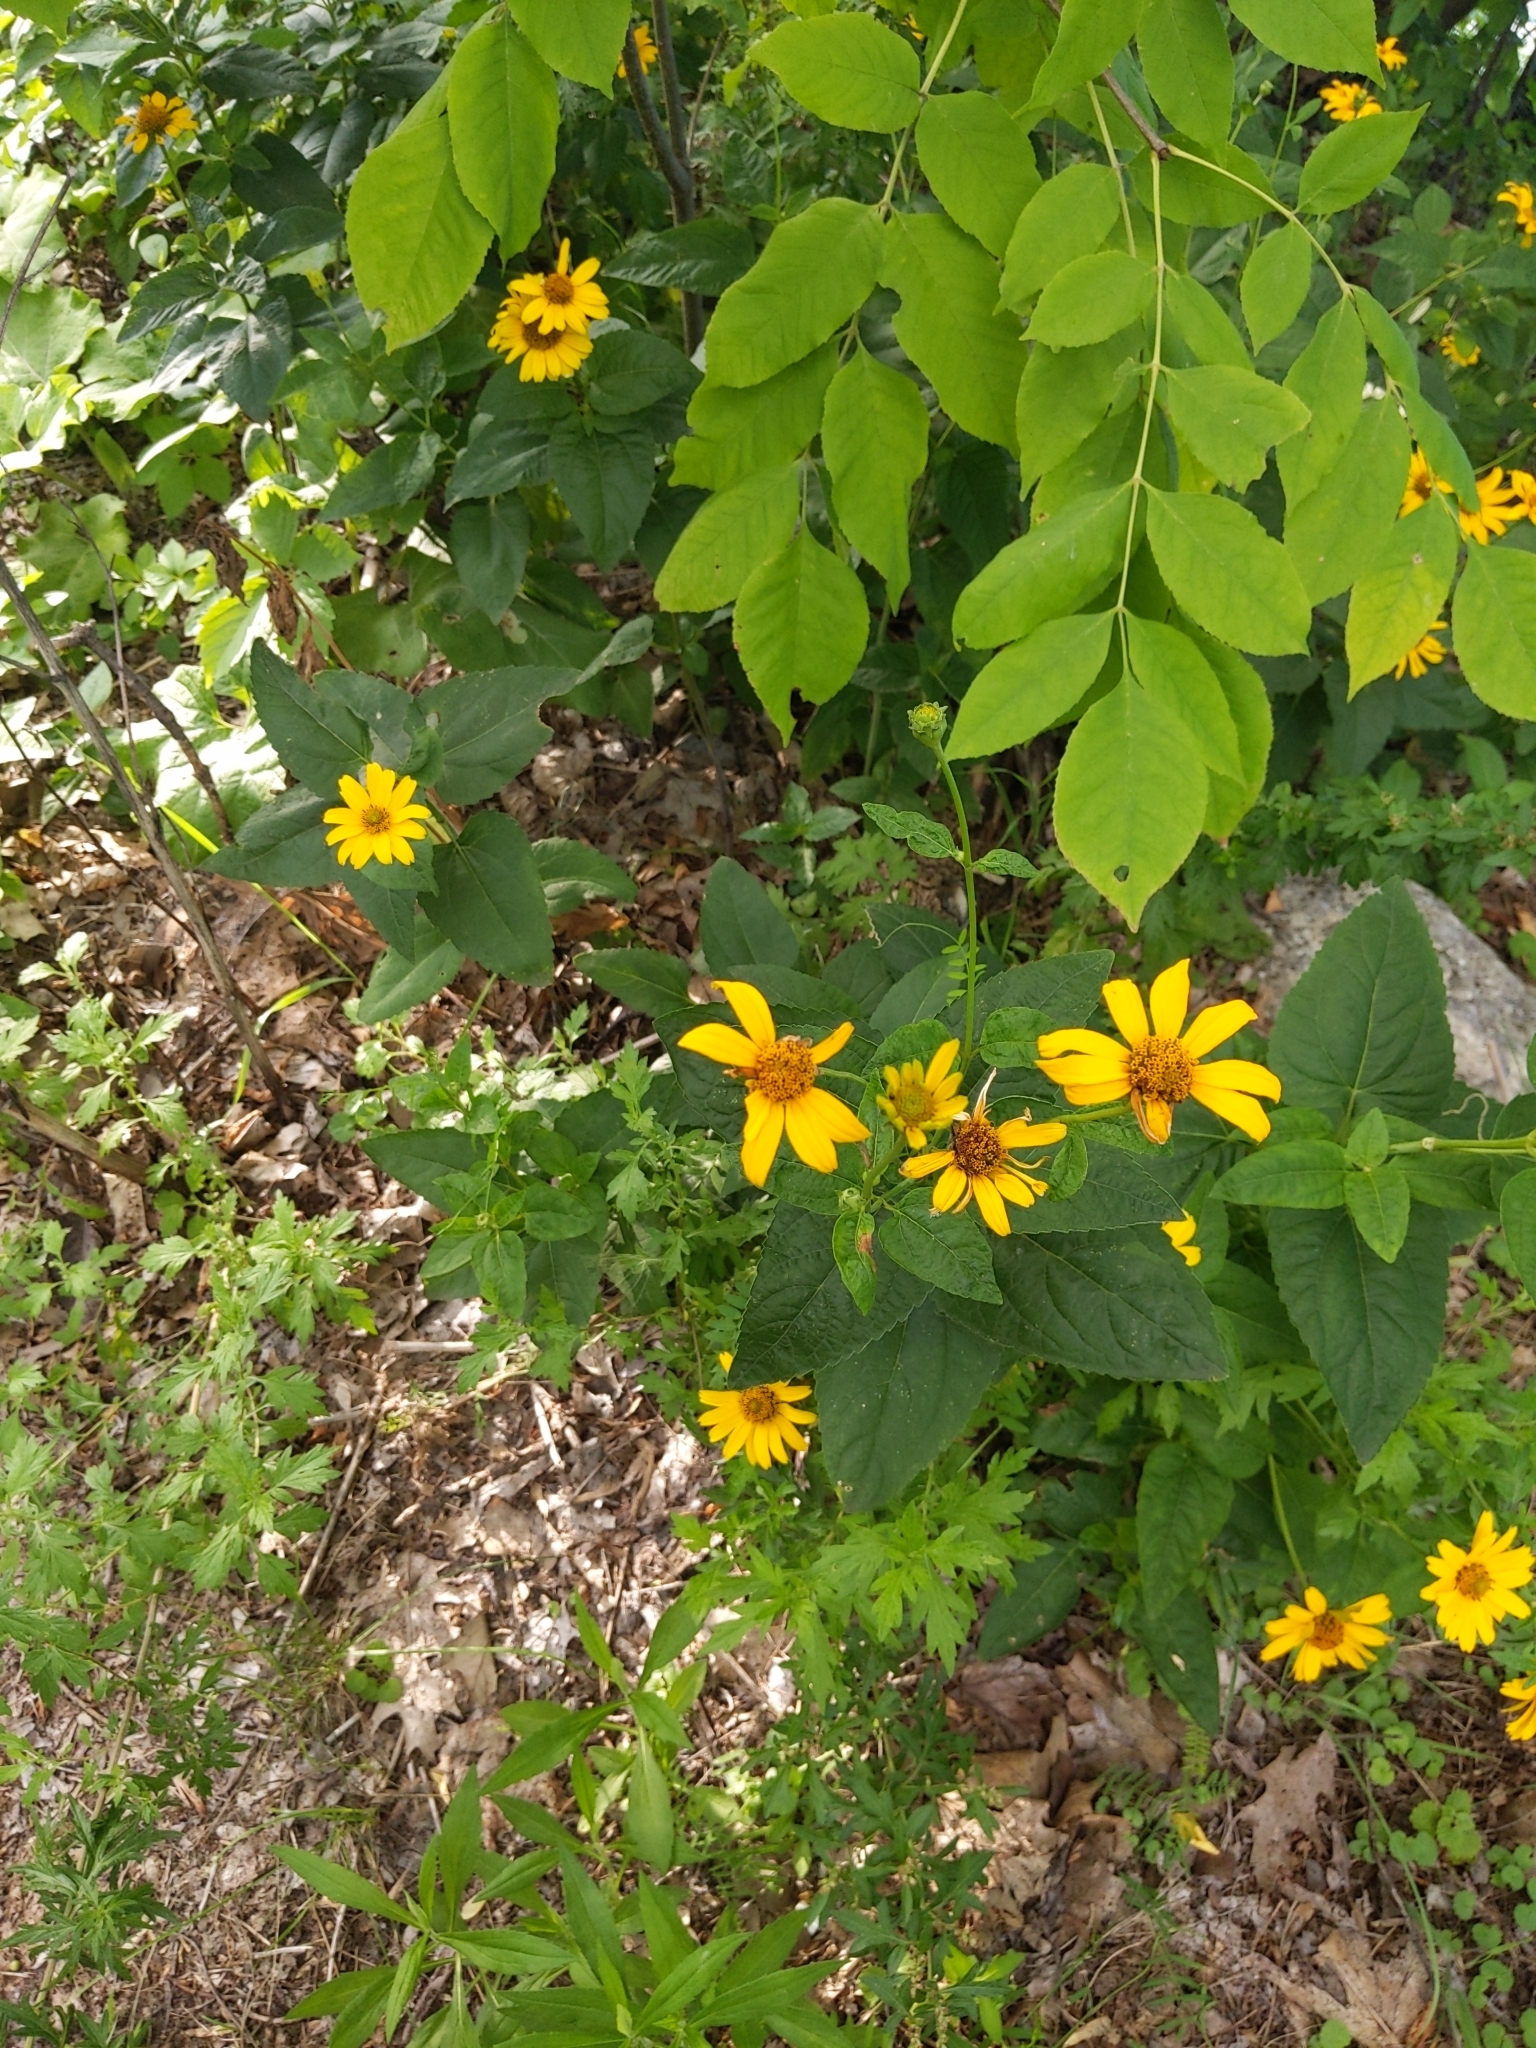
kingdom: Plantae
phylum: Tracheophyta
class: Magnoliopsida
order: Asterales
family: Asteraceae
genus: Heliopsis
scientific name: Heliopsis helianthoides
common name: False sunflower
